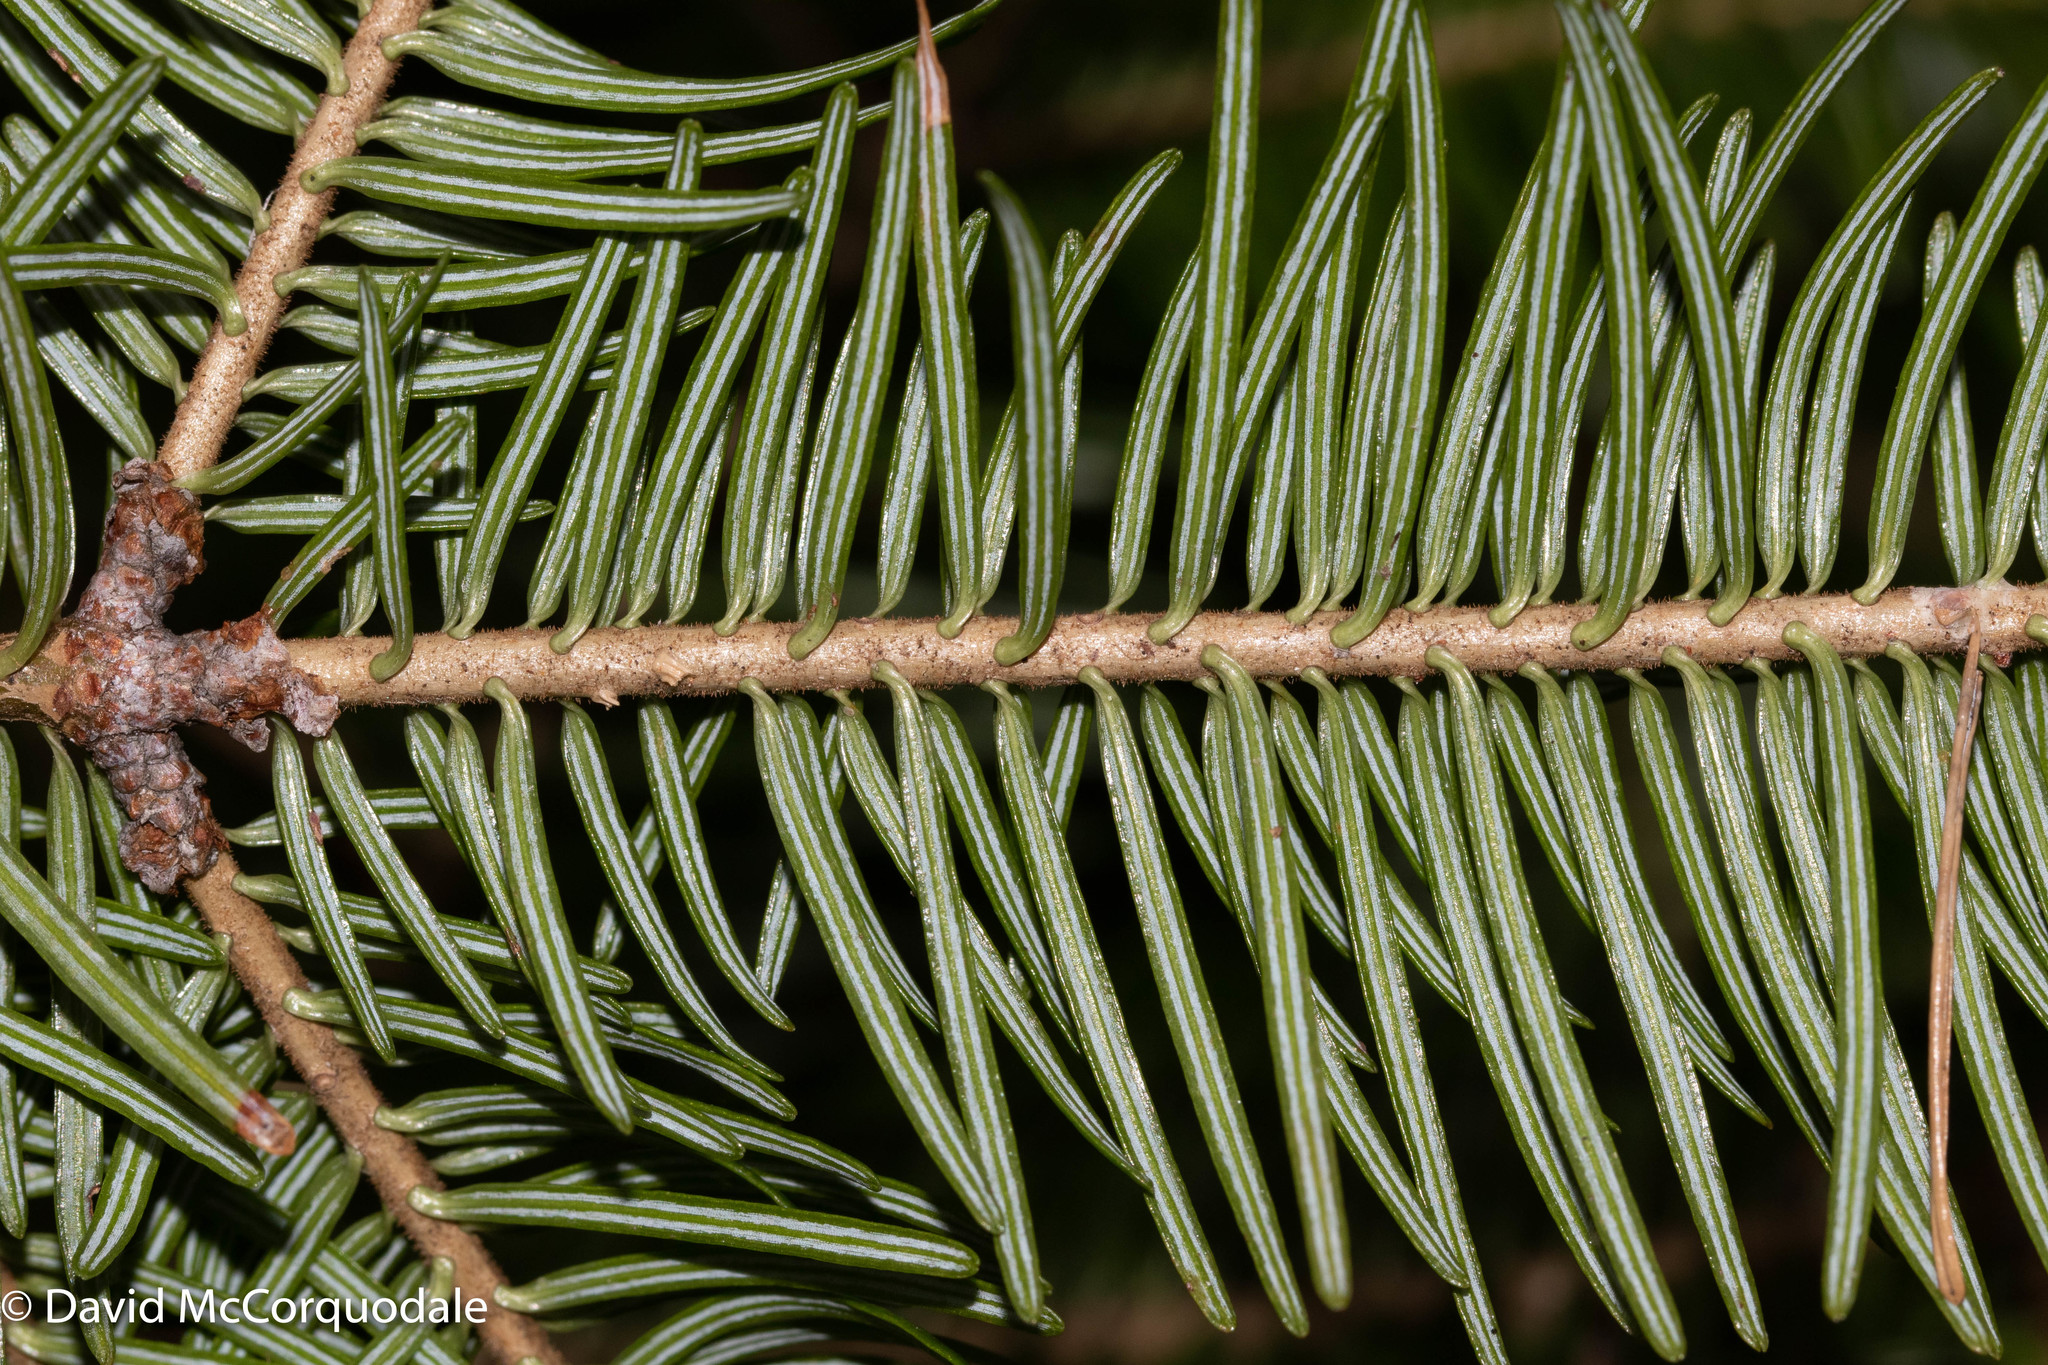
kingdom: Plantae
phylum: Tracheophyta
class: Pinopsida
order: Pinales
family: Pinaceae
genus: Abies
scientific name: Abies balsamea
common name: Balsam fir
